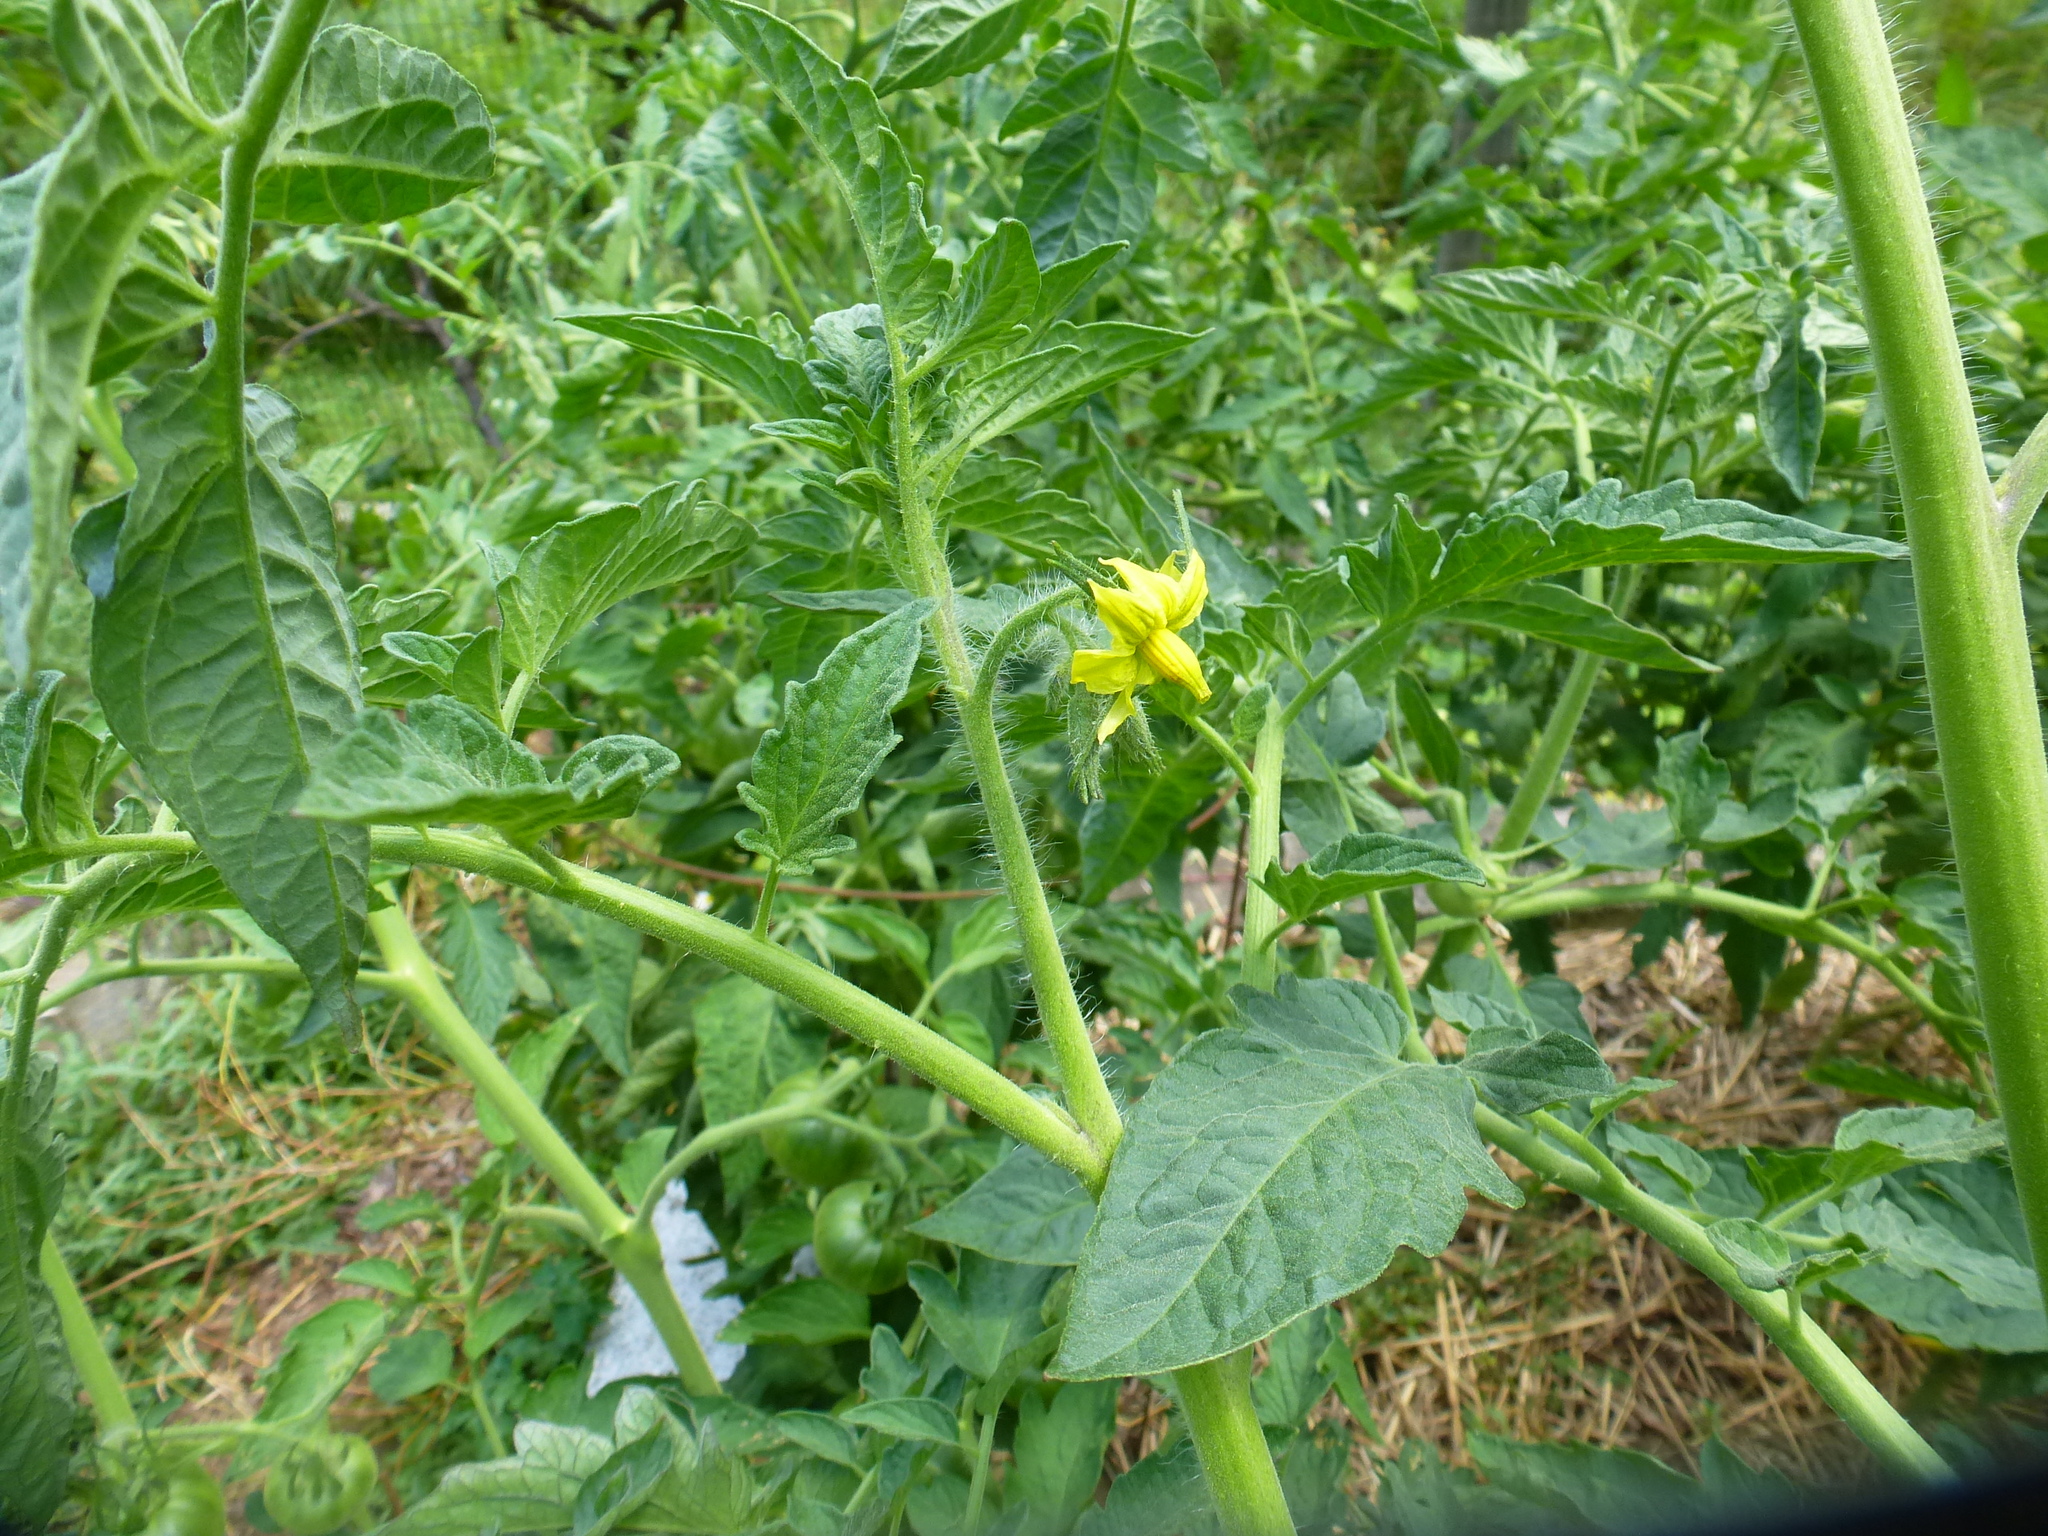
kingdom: Plantae
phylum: Tracheophyta
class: Magnoliopsida
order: Solanales
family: Solanaceae
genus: Solanum
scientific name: Solanum lycopersicum
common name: Garden tomato
